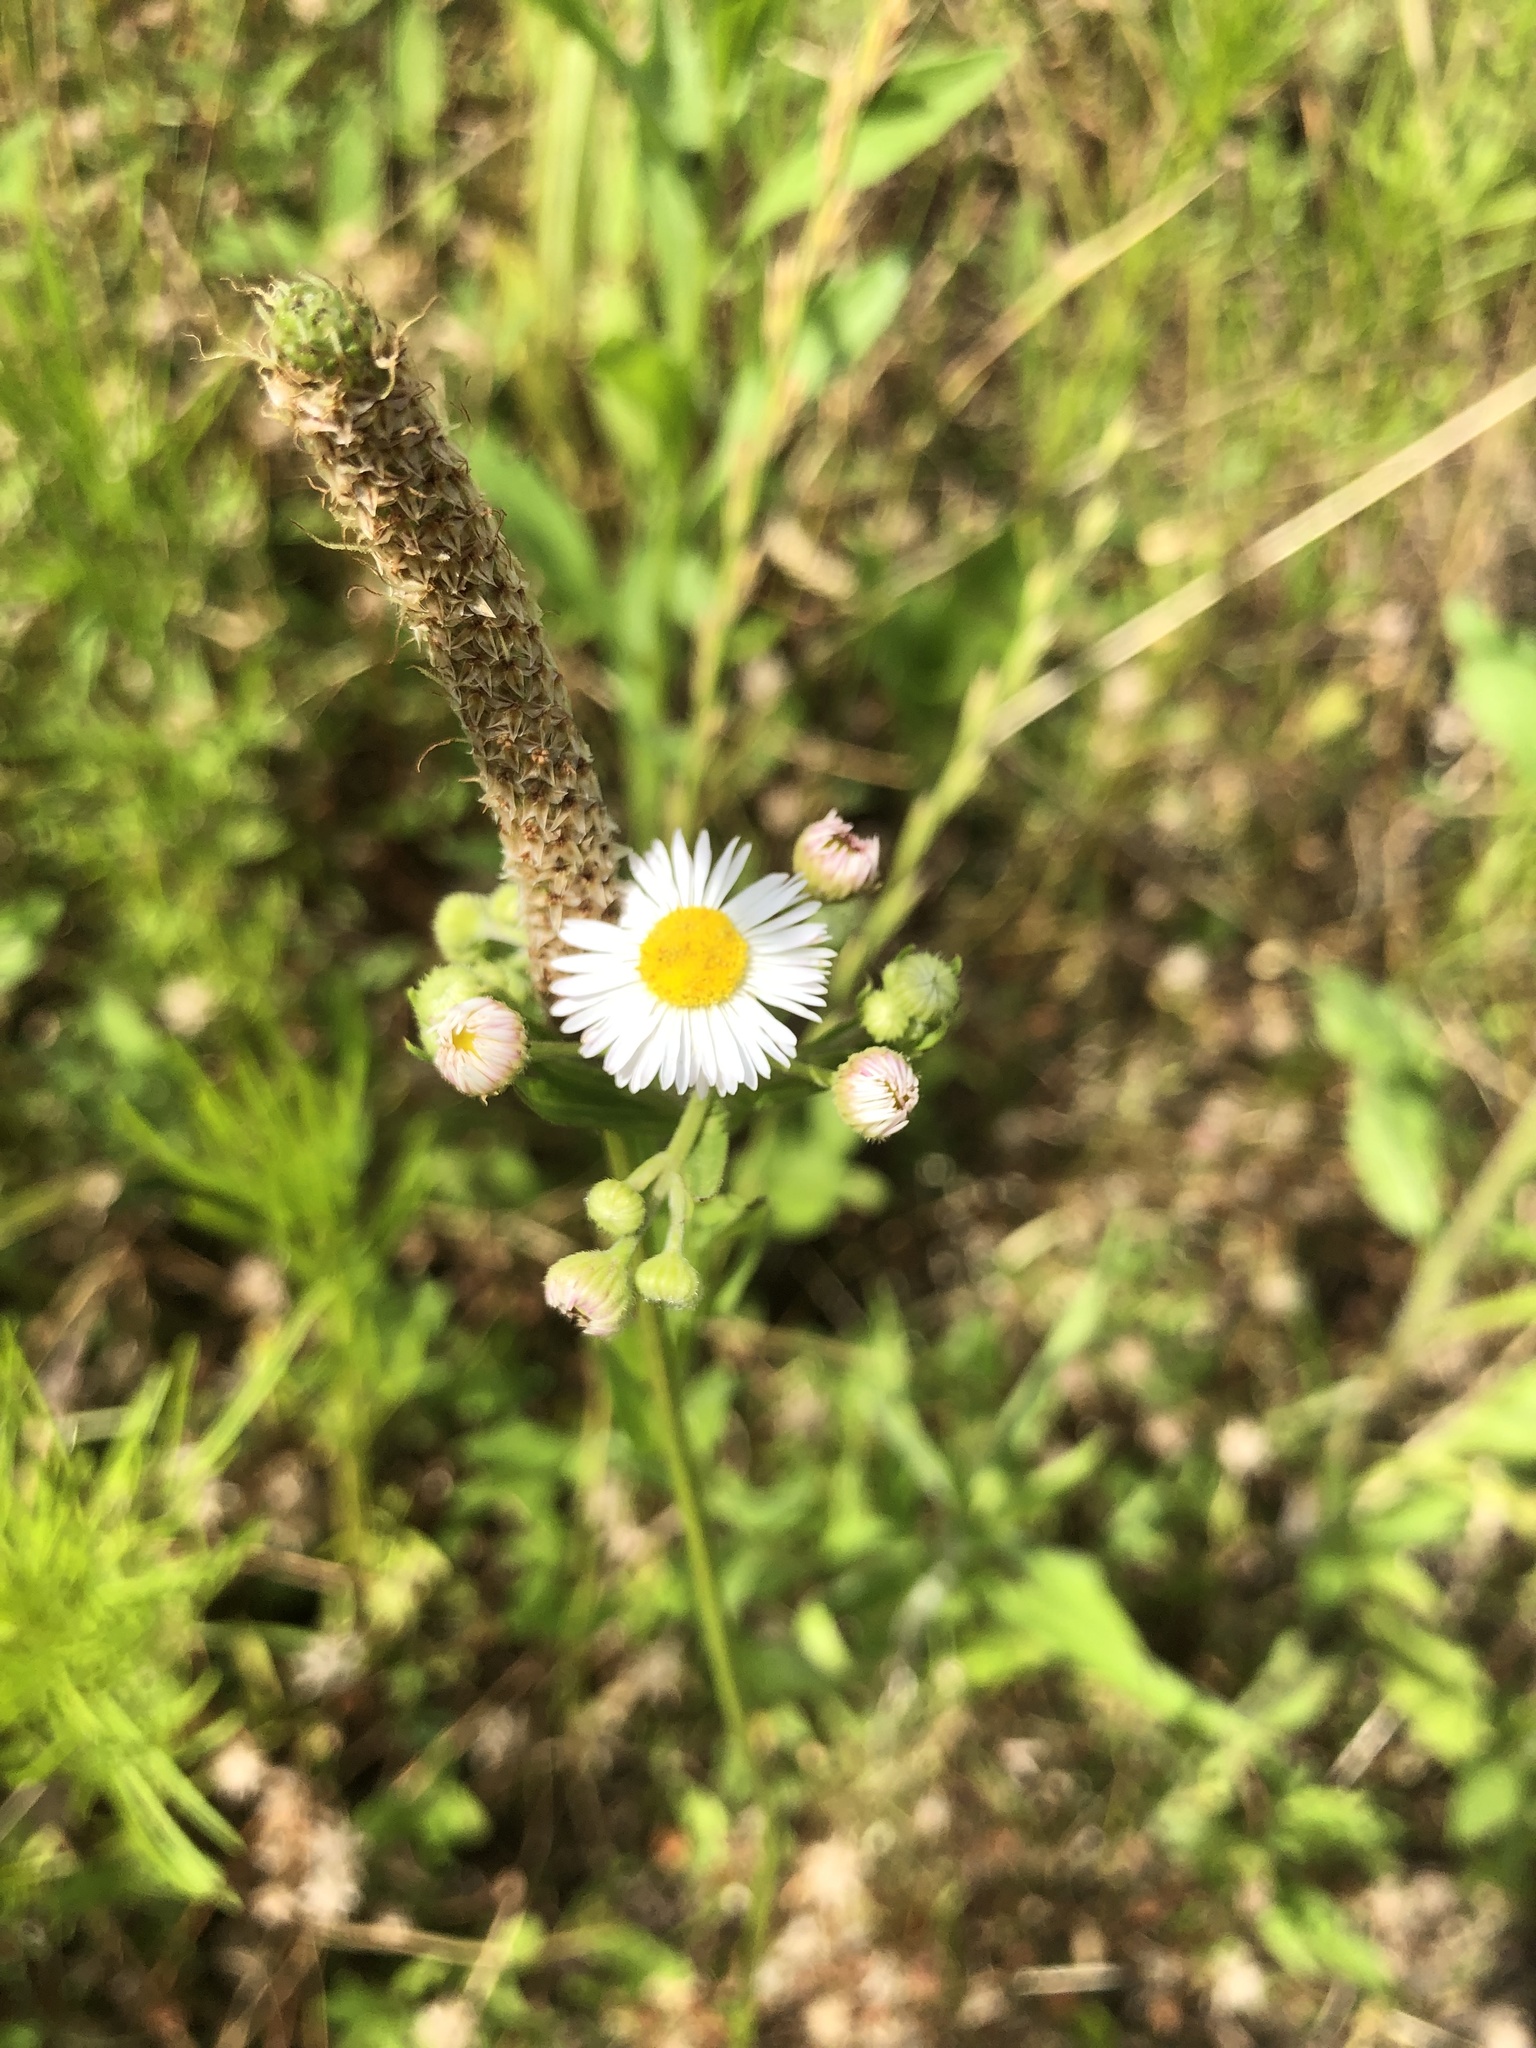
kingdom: Plantae
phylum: Tracheophyta
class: Magnoliopsida
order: Asterales
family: Asteraceae
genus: Erigeron
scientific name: Erigeron annuus
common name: Tall fleabane
